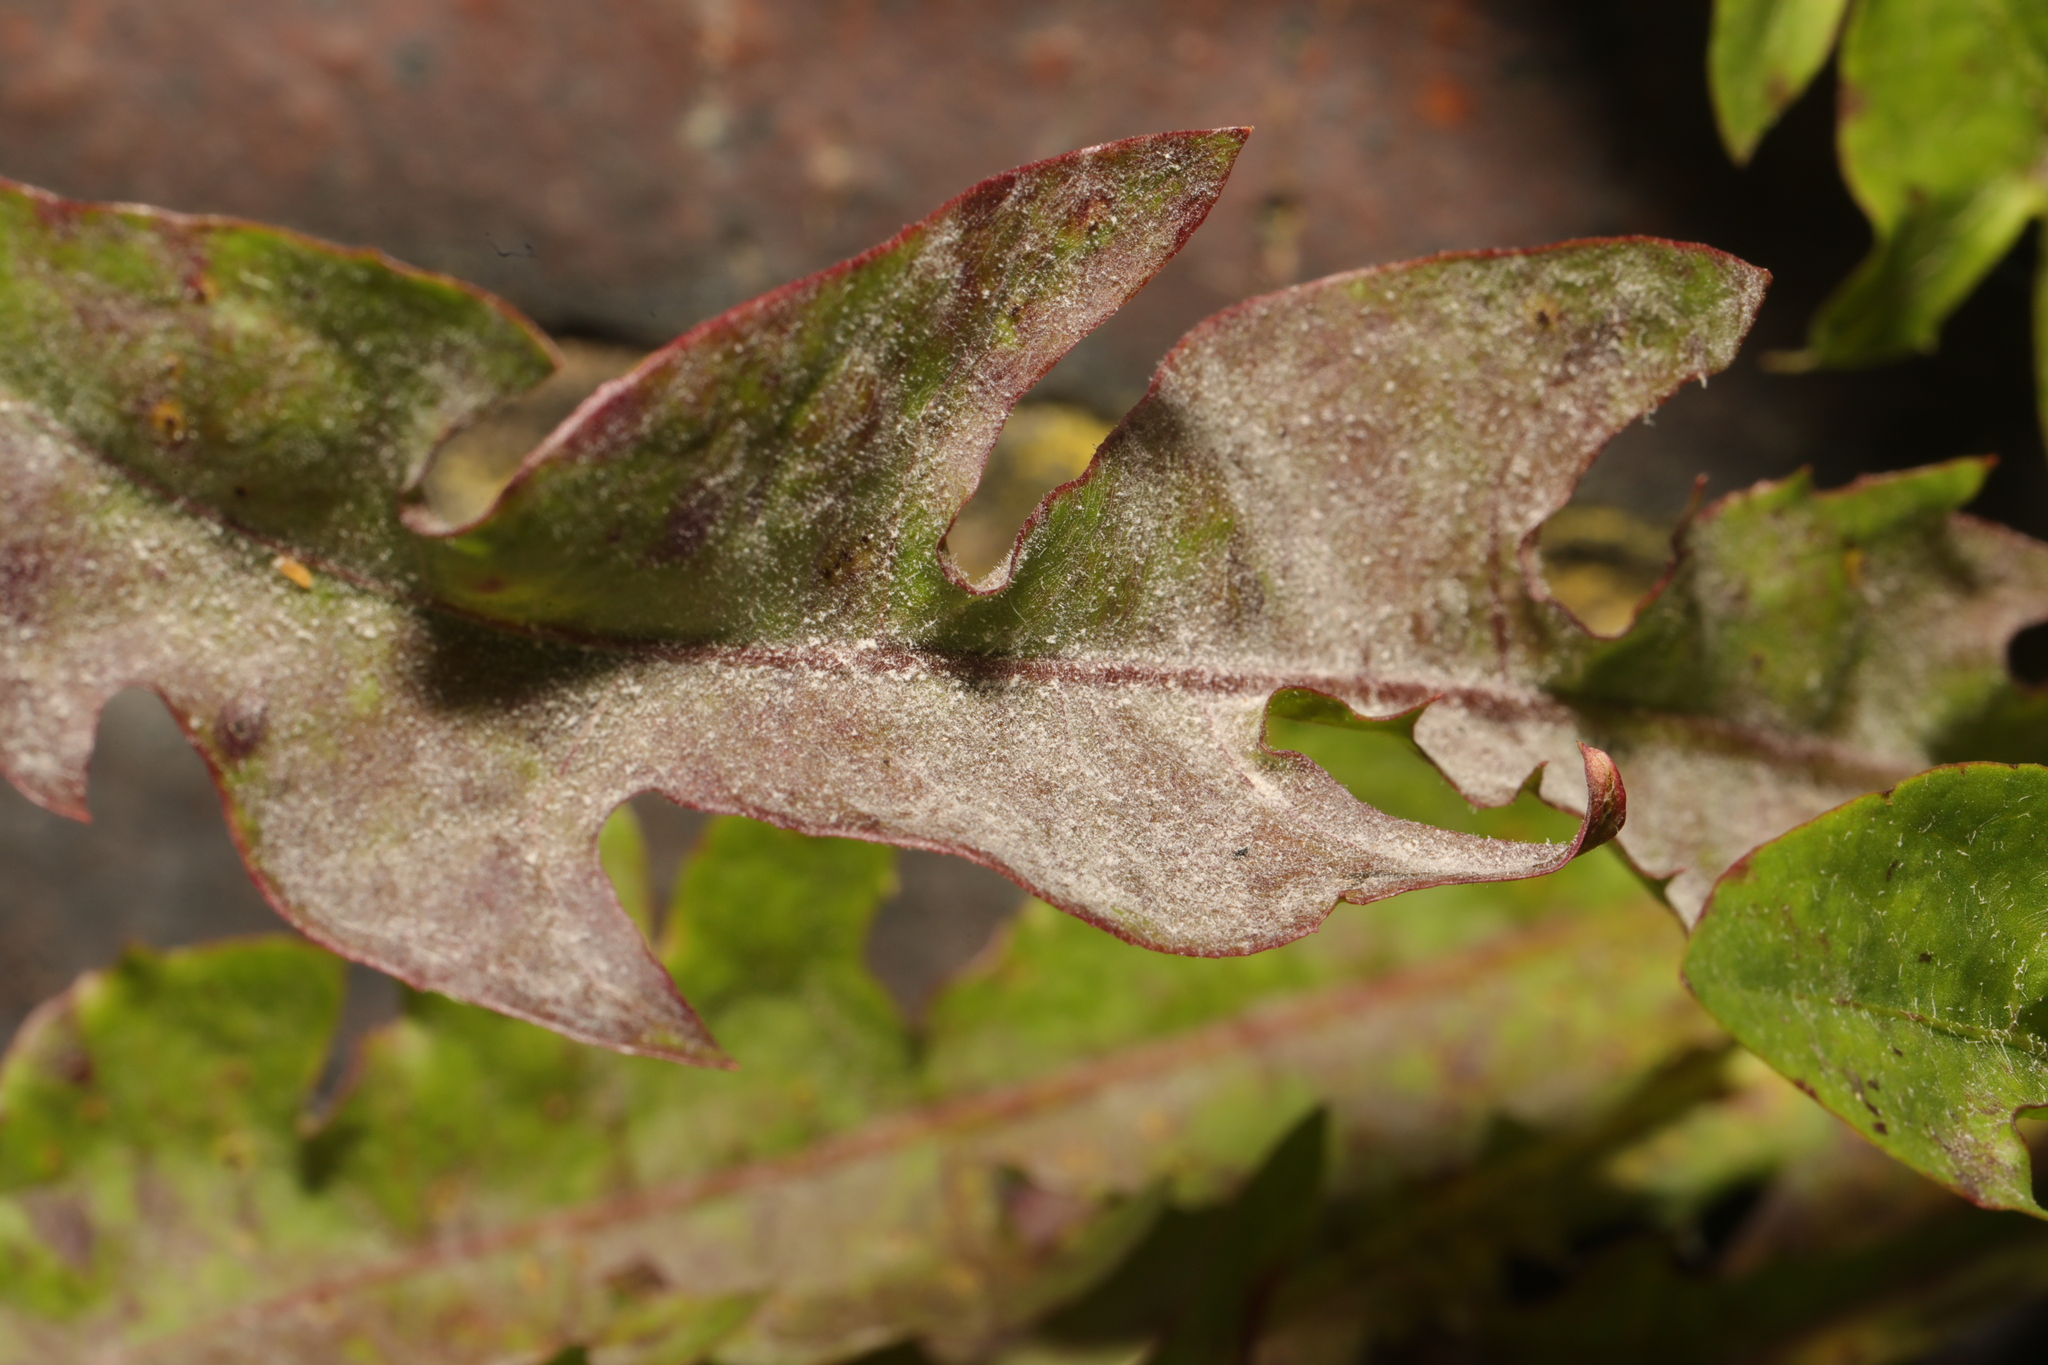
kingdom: Fungi
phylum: Ascomycota
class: Leotiomycetes
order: Helotiales
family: Erysiphaceae
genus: Podosphaera
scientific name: Podosphaera erigerontis-canadensis
